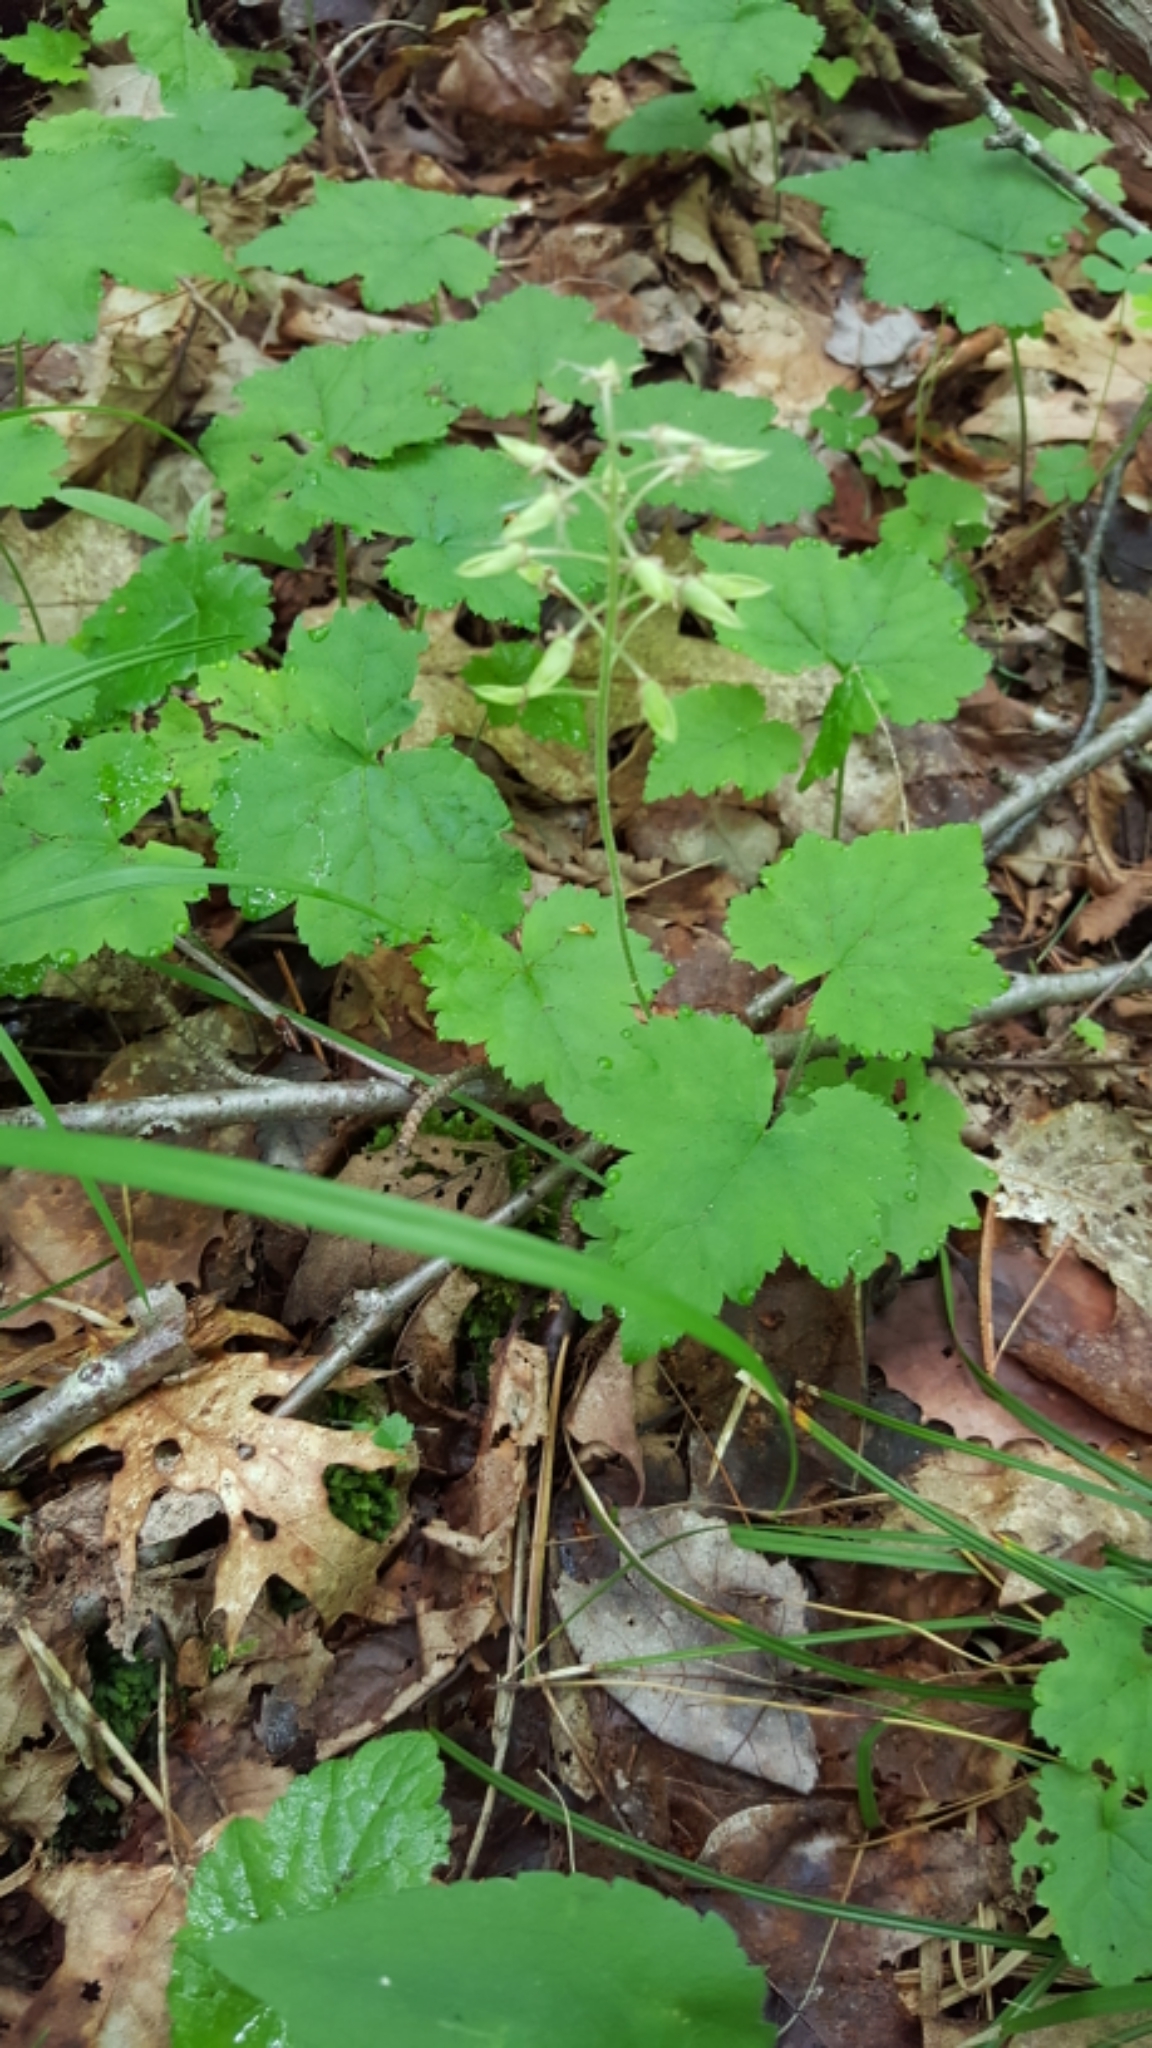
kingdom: Plantae
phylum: Tracheophyta
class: Magnoliopsida
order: Saxifragales
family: Saxifragaceae
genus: Tiarella
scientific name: Tiarella stolonifera
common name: Stoloniferous foamflower
